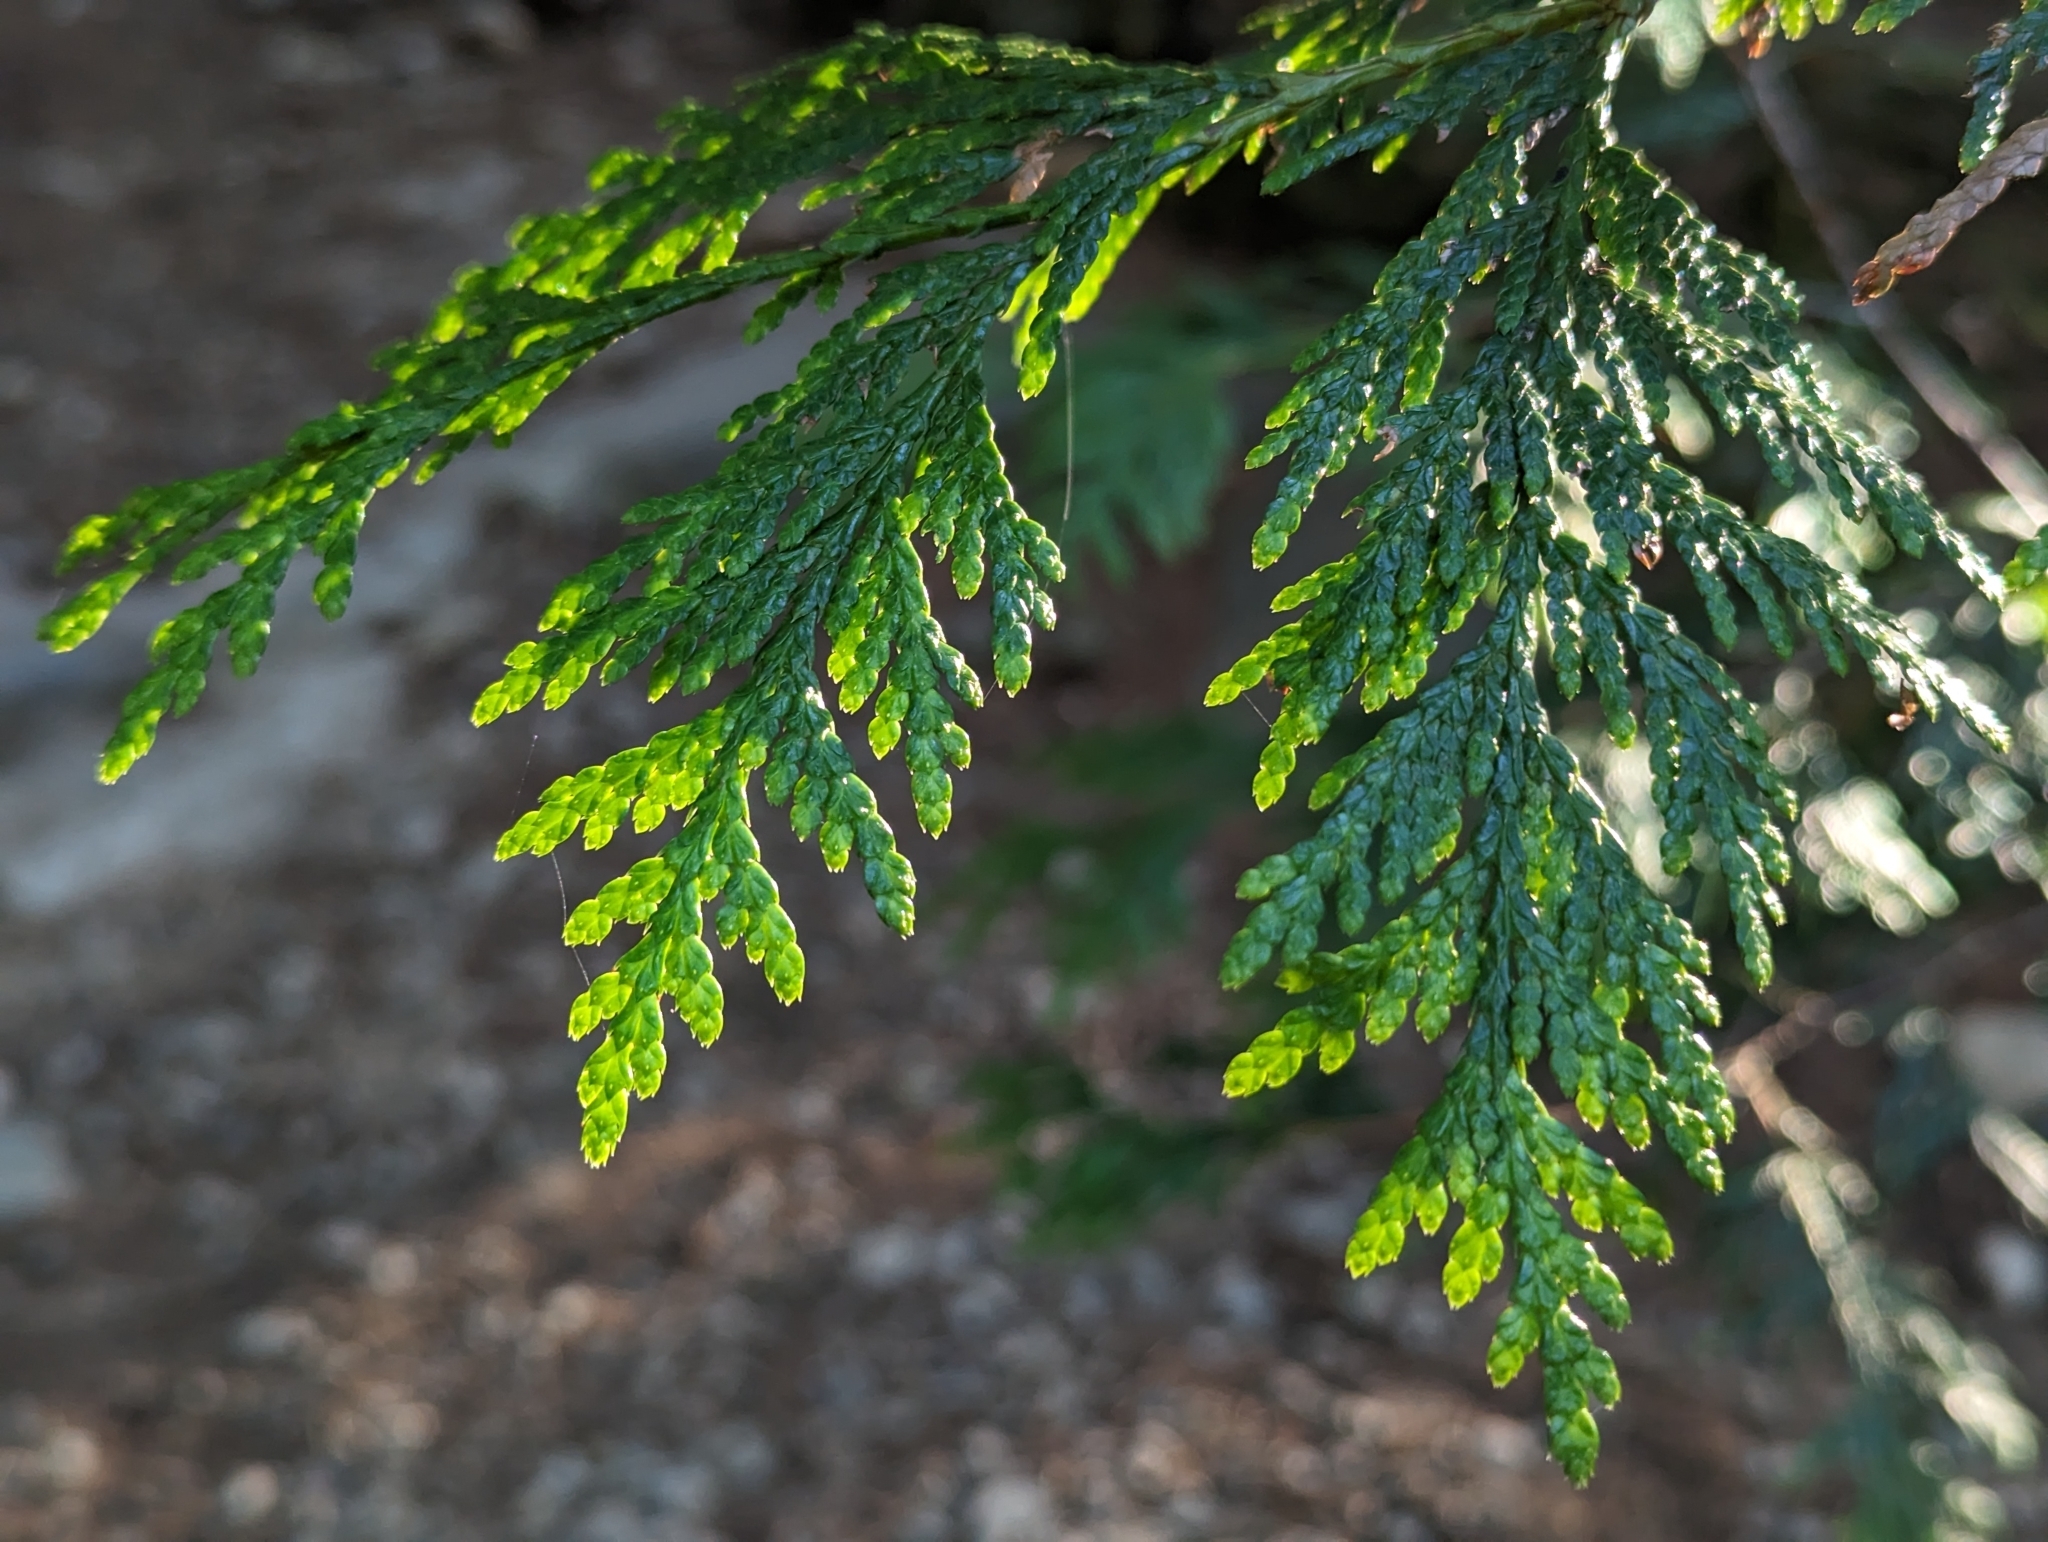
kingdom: Plantae
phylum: Tracheophyta
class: Pinopsida
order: Pinales
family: Cupressaceae
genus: Thuja
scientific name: Thuja plicata
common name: Western red-cedar
